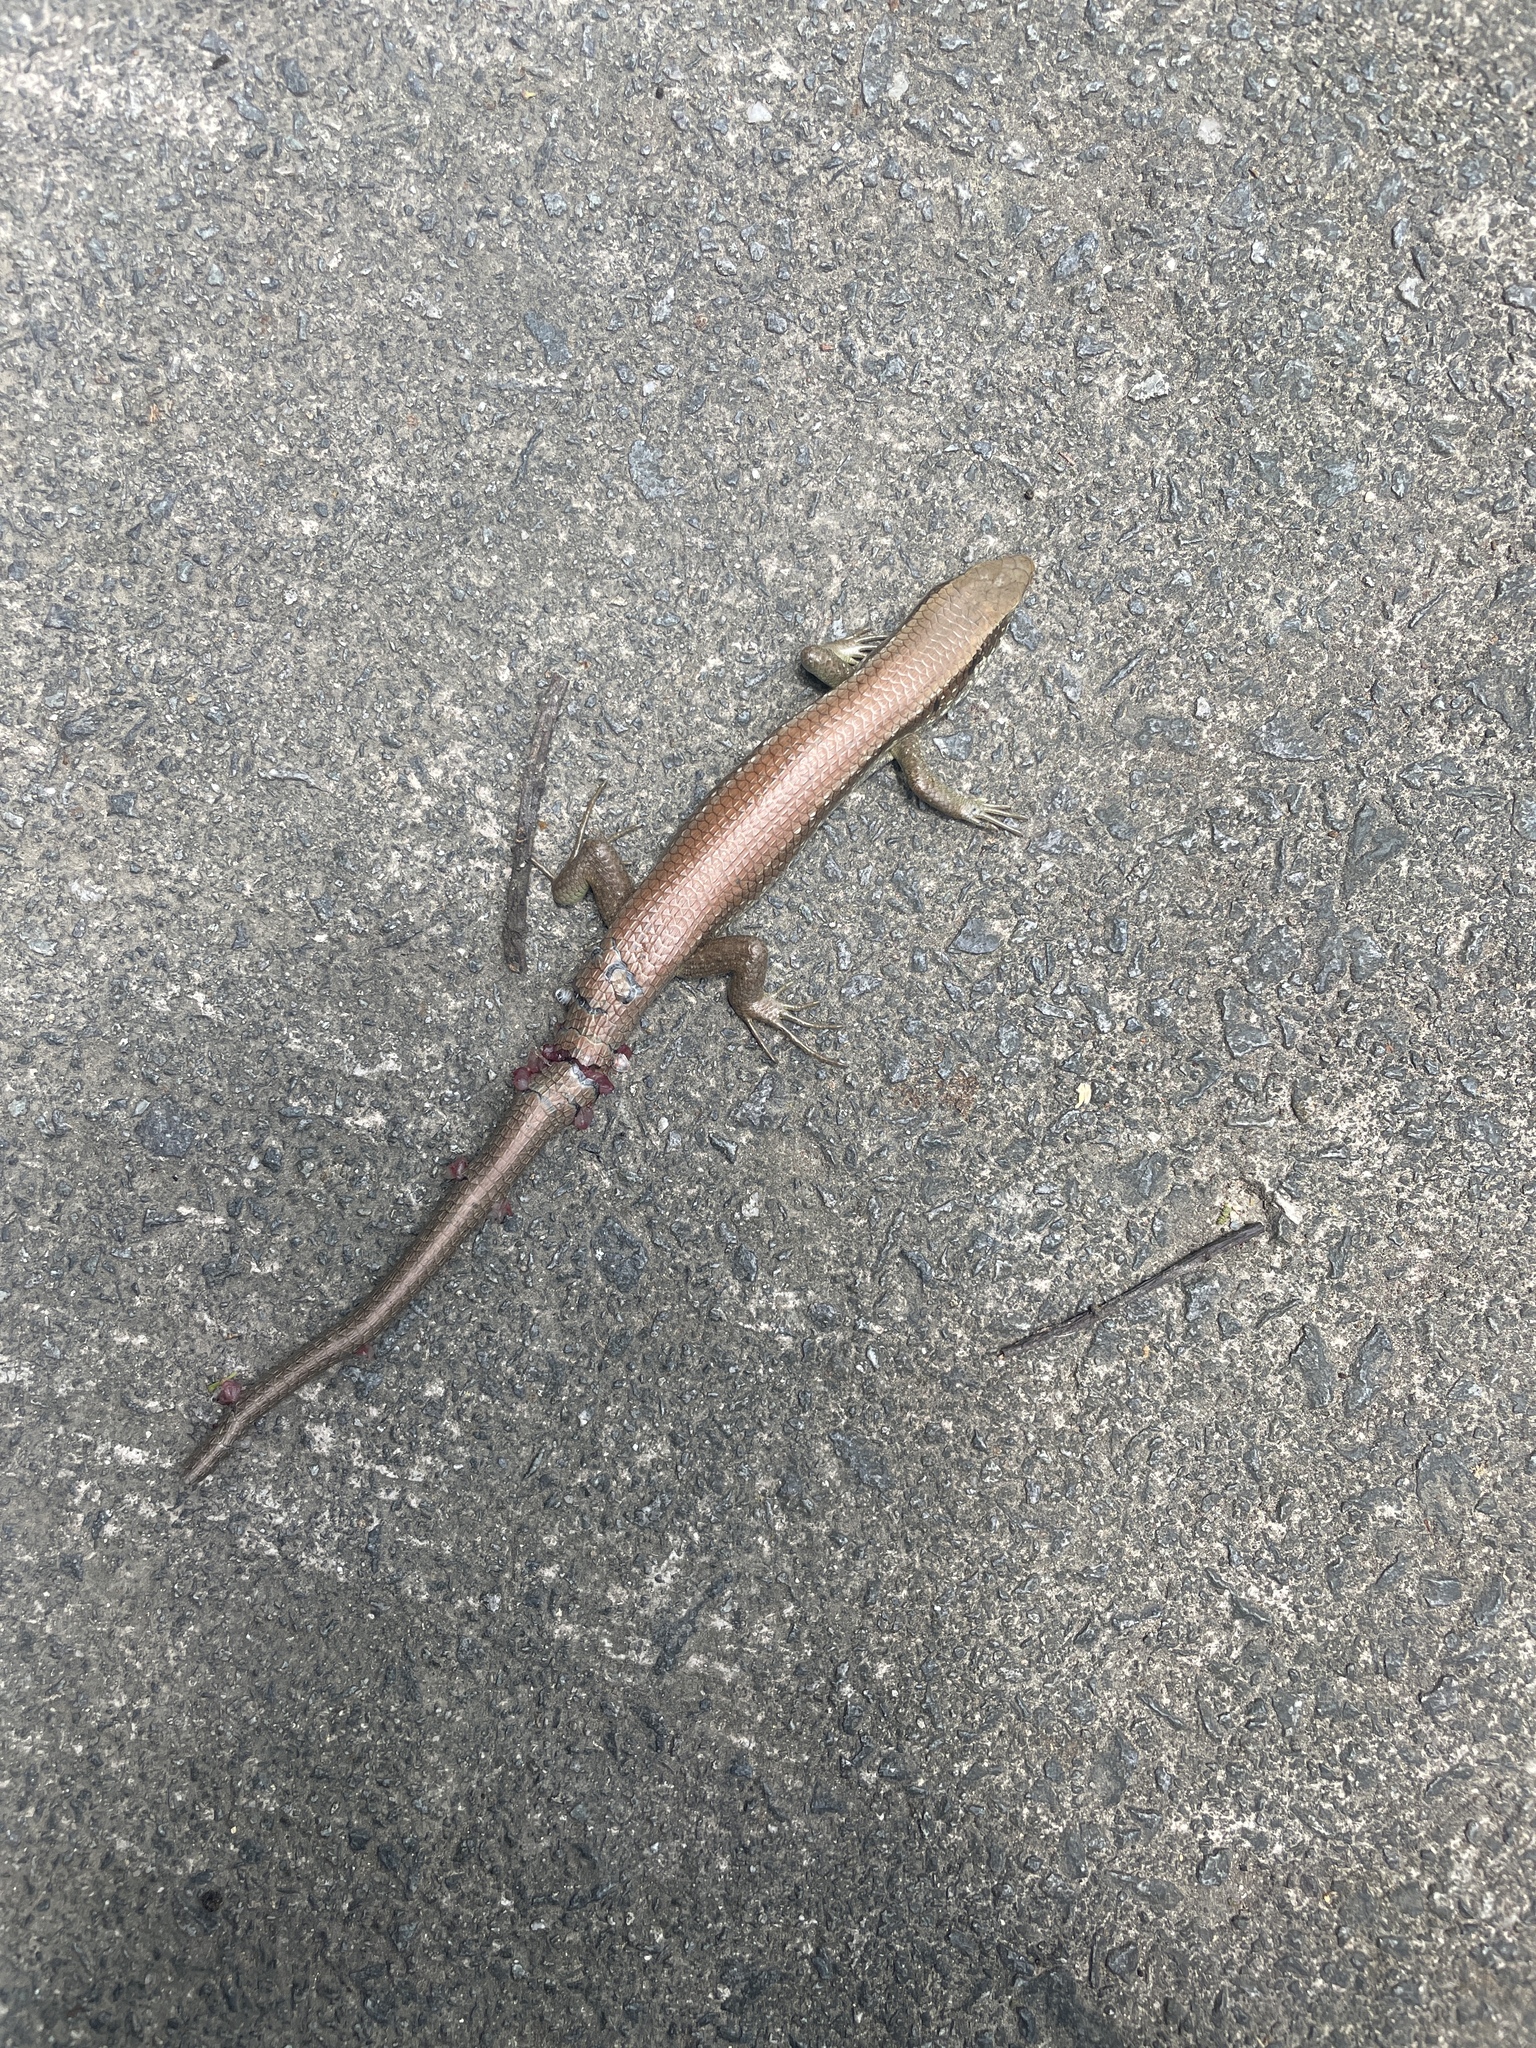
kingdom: Animalia
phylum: Chordata
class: Squamata
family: Scincidae
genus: Eutropis
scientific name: Eutropis longicaudata
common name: Long-tailed sun skink
